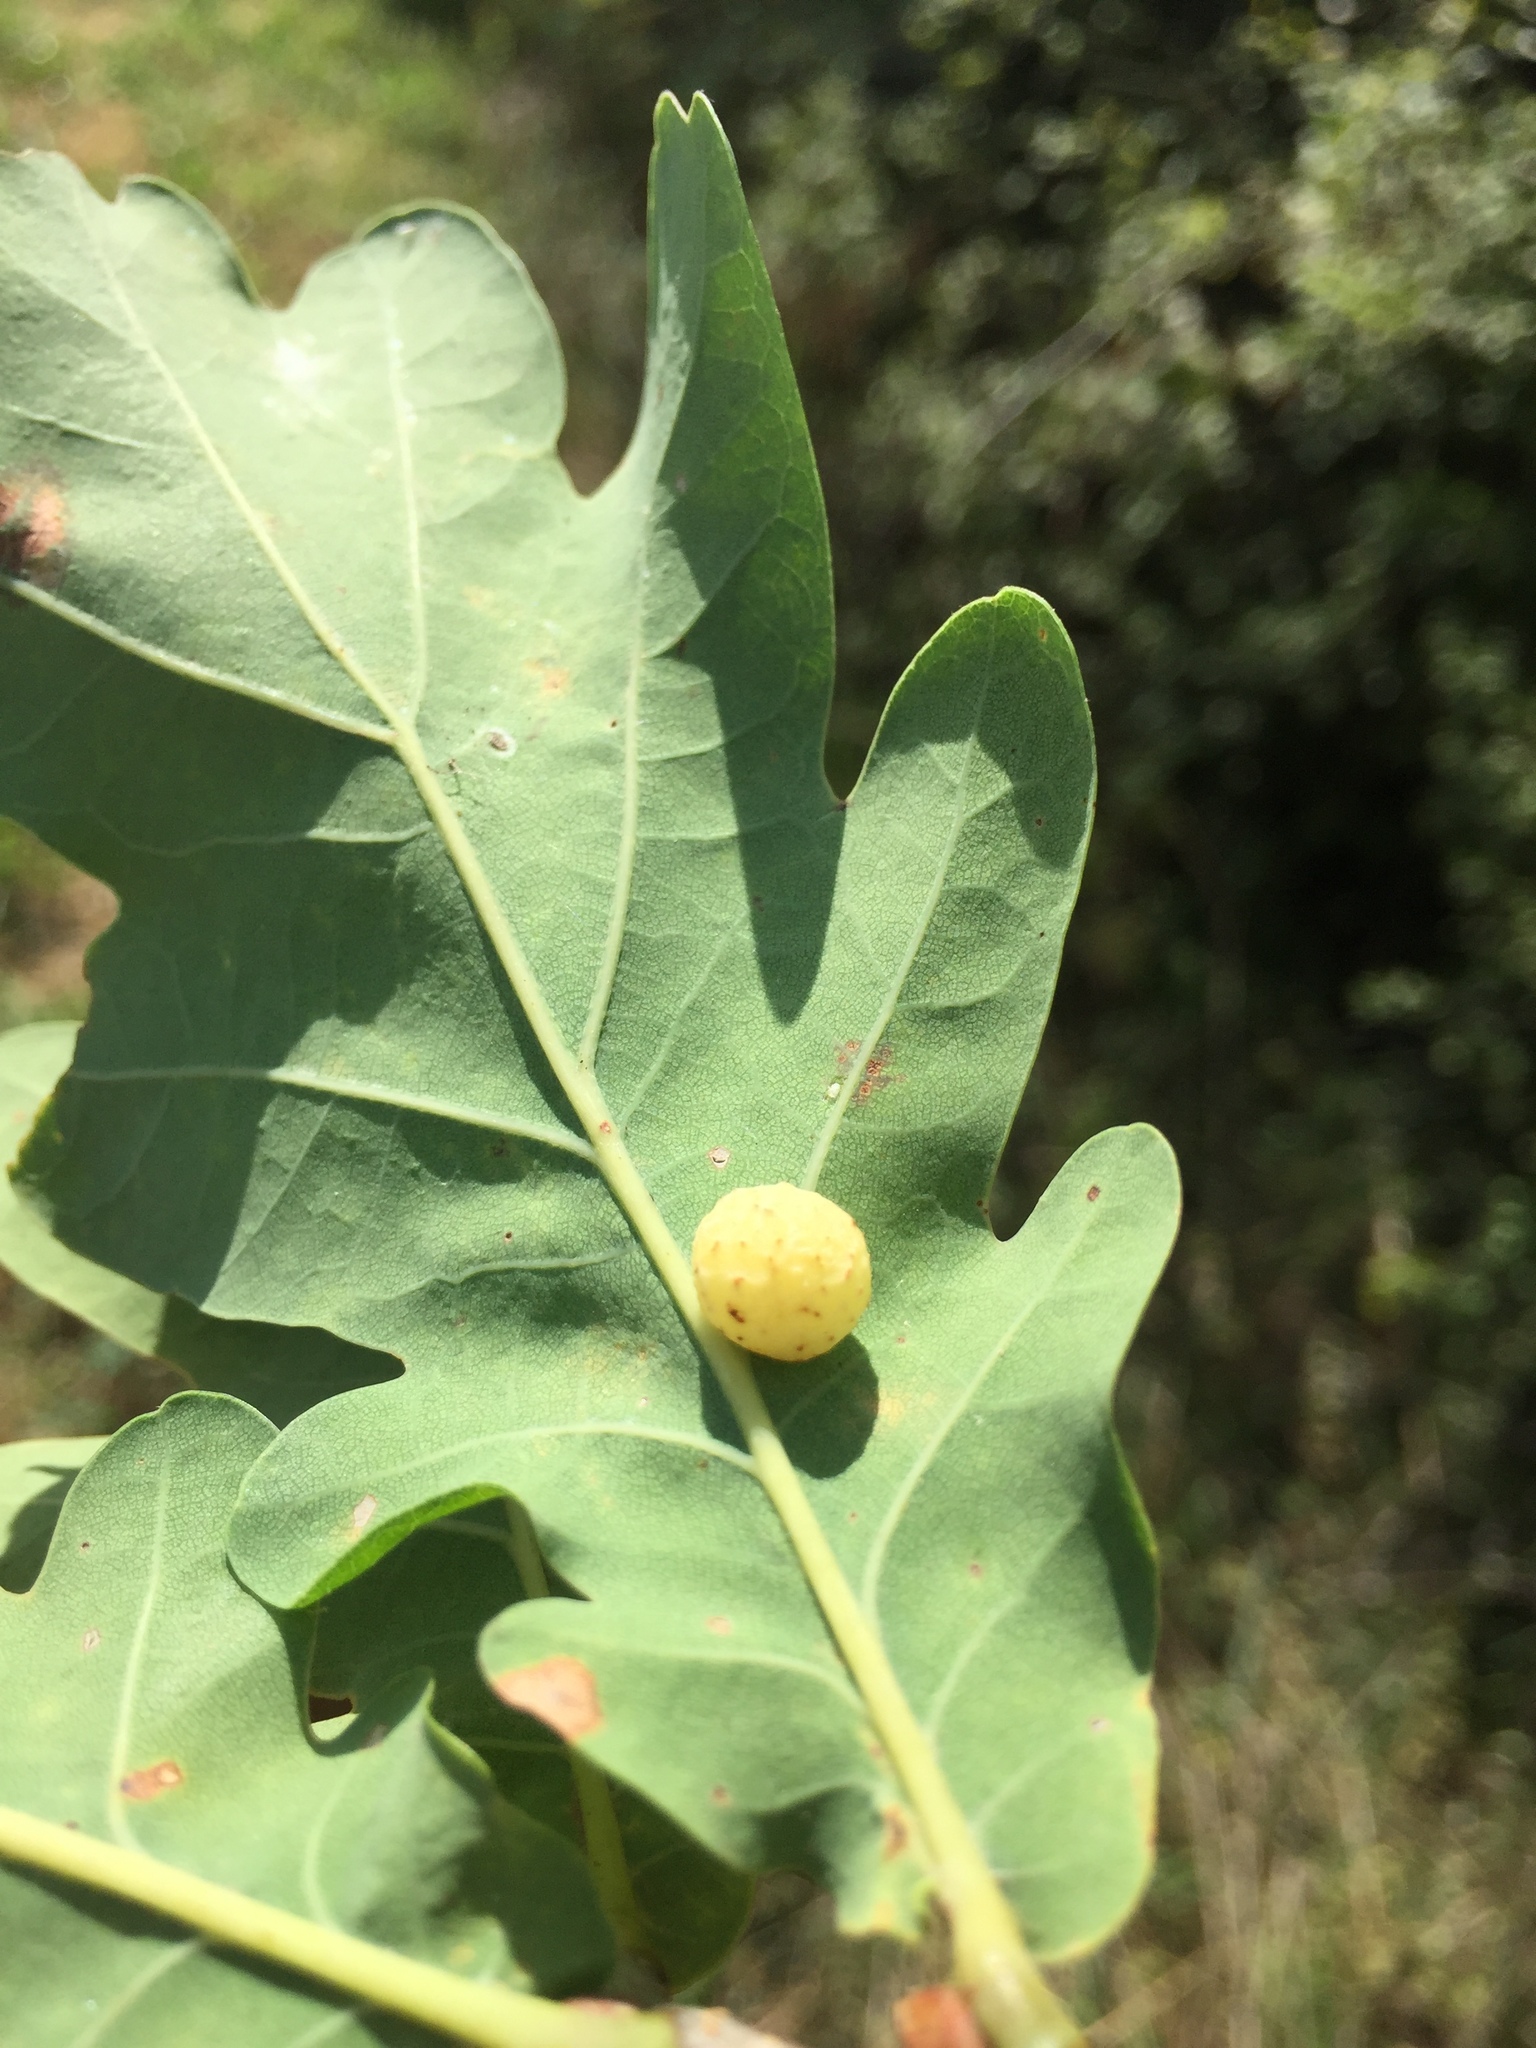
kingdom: Animalia
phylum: Arthropoda
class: Insecta
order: Hymenoptera
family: Cynipidae
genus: Cynips
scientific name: Cynips quercusfolii
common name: Cherry gall
